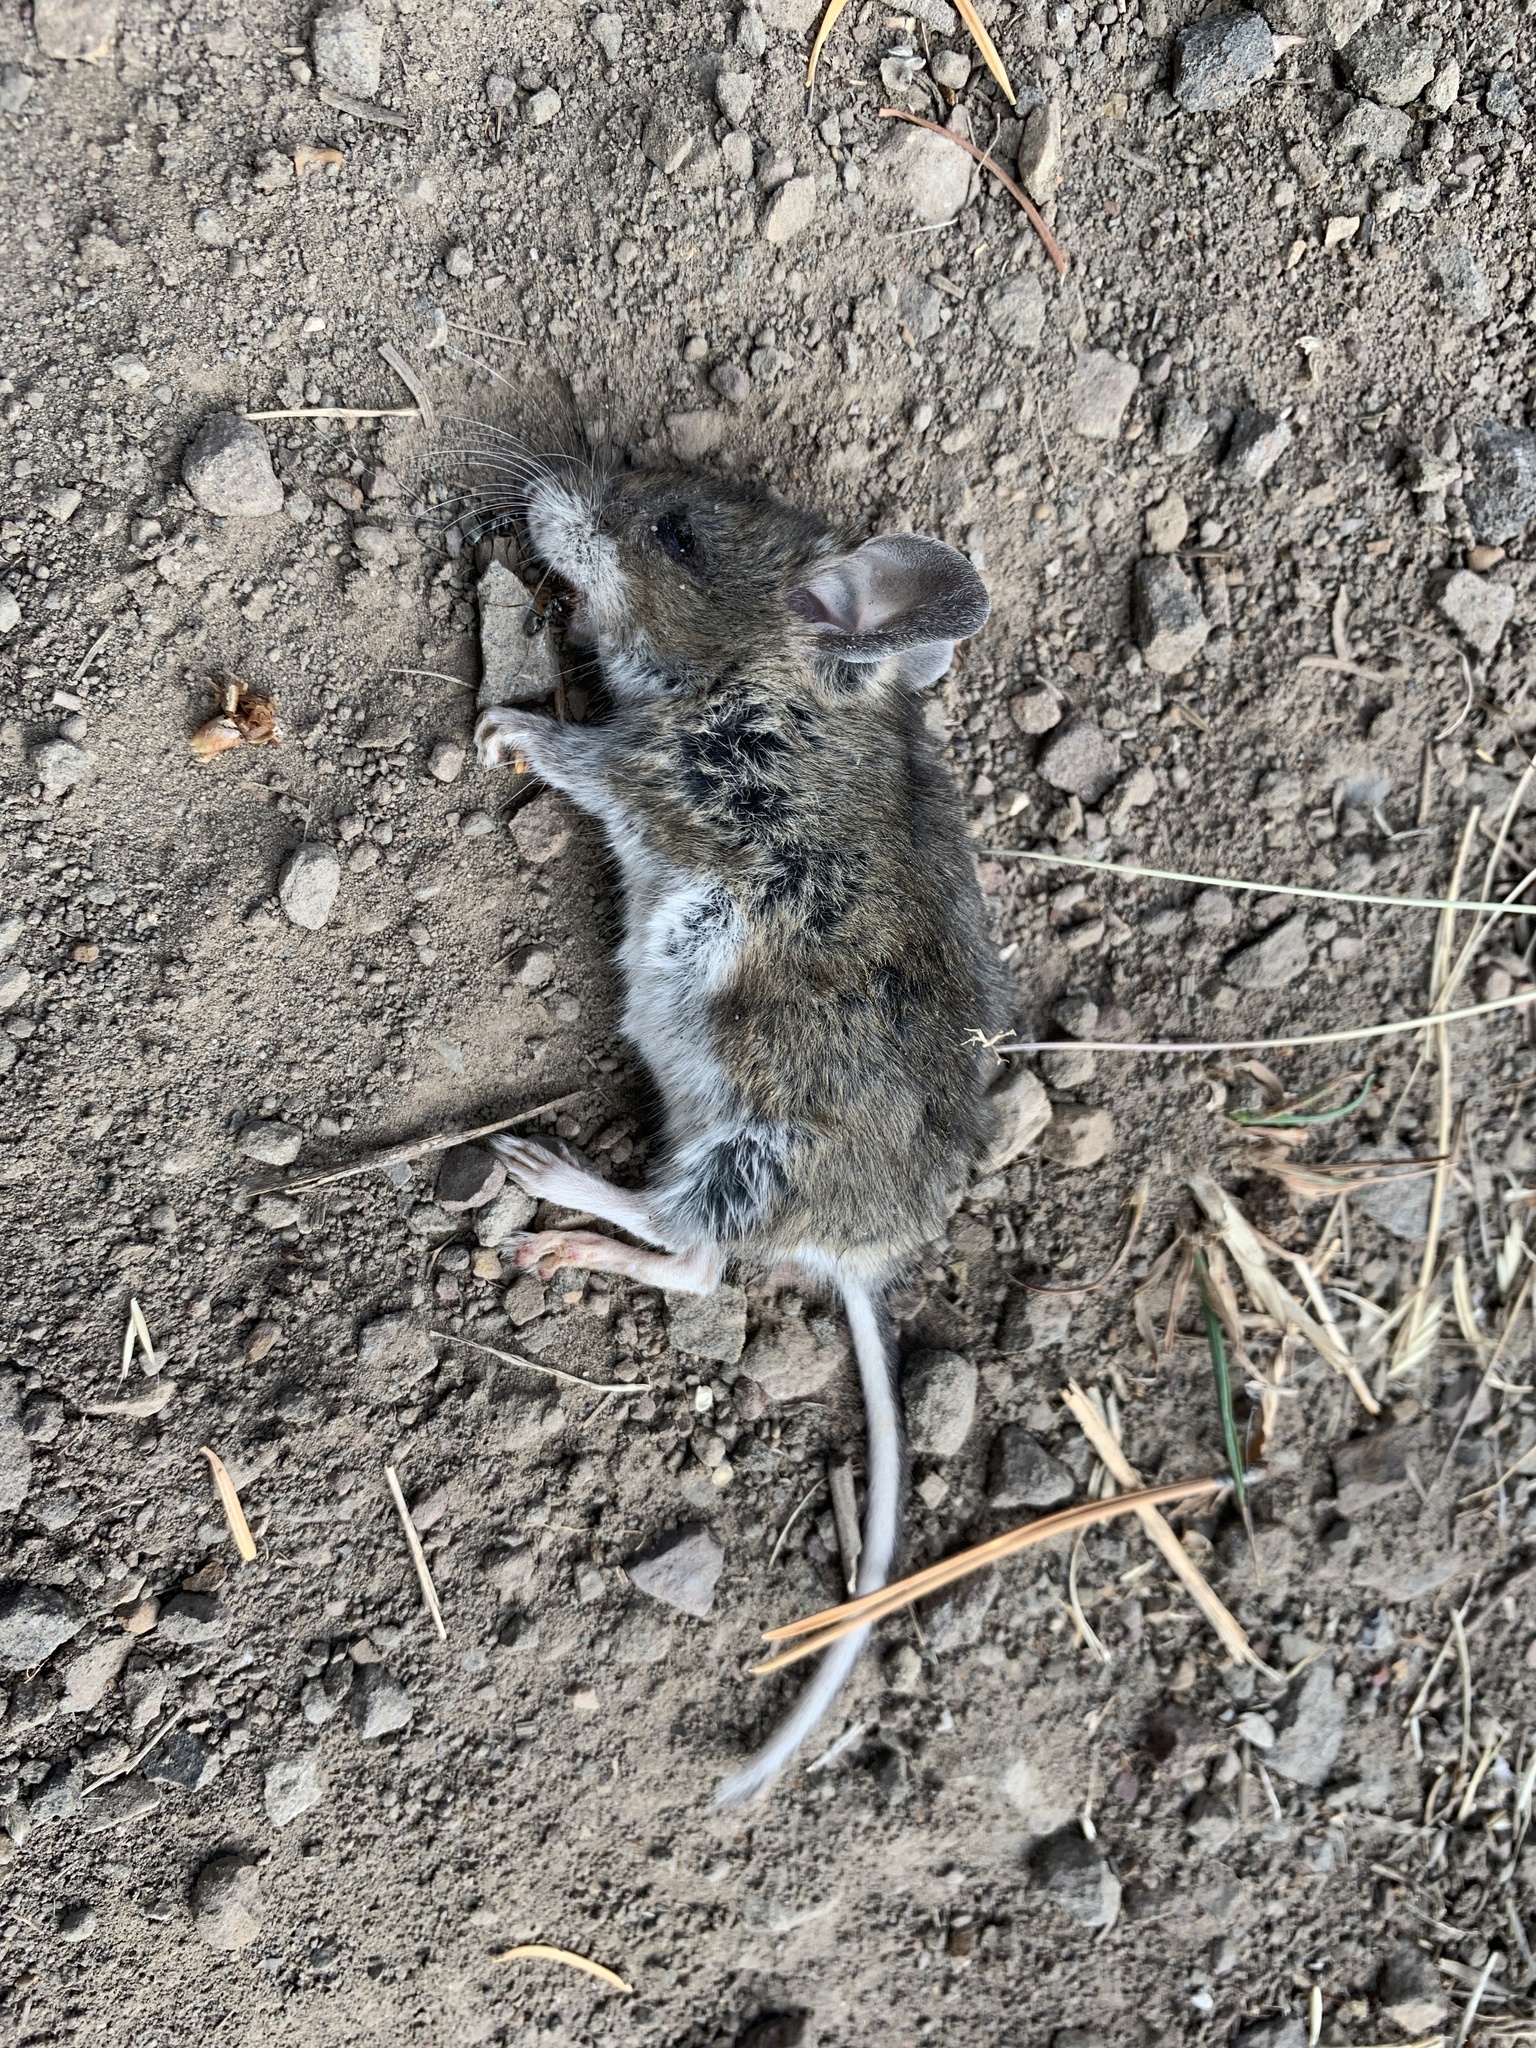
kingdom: Animalia
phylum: Chordata
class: Mammalia
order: Rodentia
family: Cricetidae
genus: Peromyscus
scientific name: Peromyscus maniculatus
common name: Deer mouse
